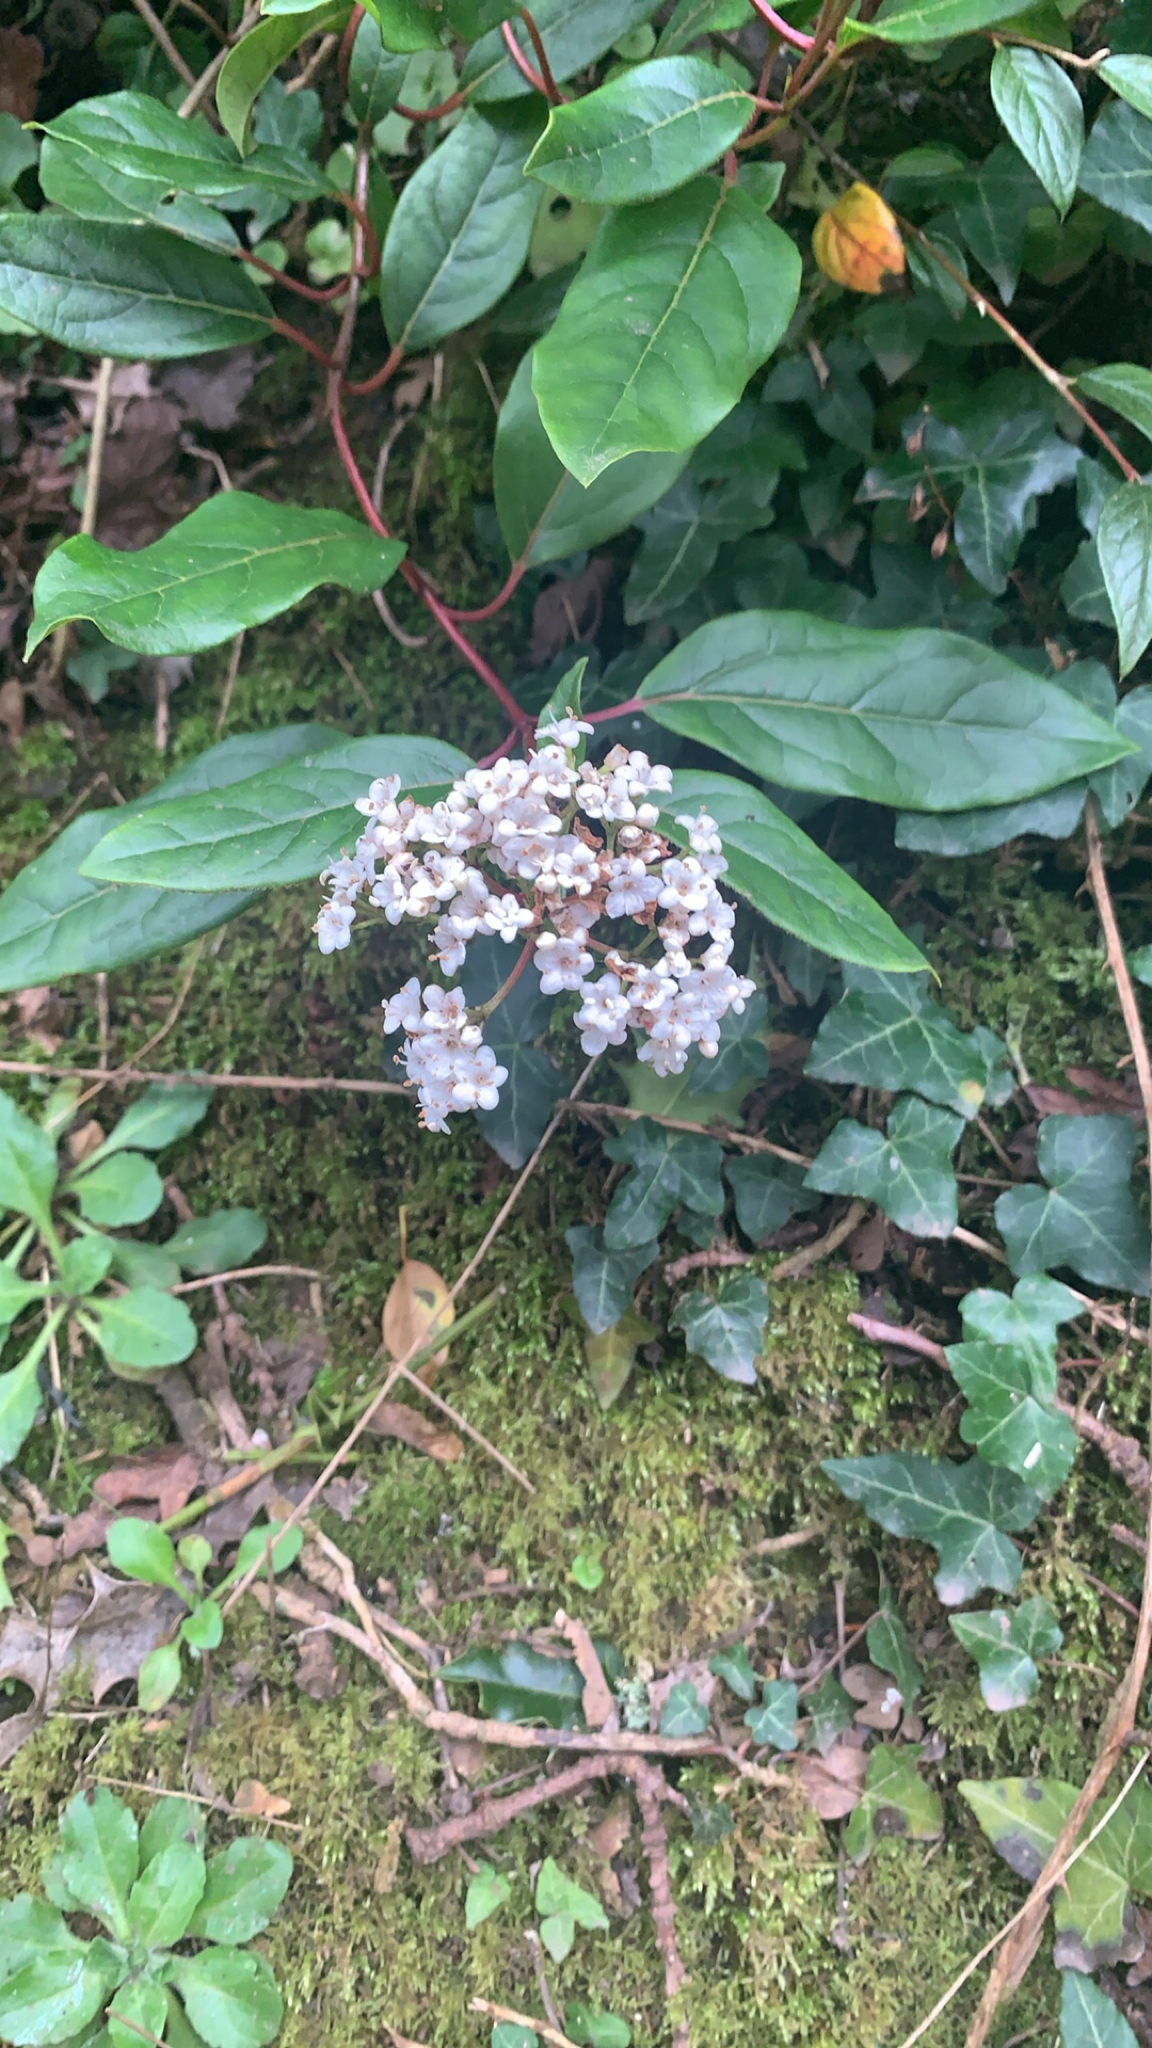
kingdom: Plantae
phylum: Tracheophyta
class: Magnoliopsida
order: Dipsacales
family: Viburnaceae
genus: Viburnum
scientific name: Viburnum tinus
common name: Laurustinus
